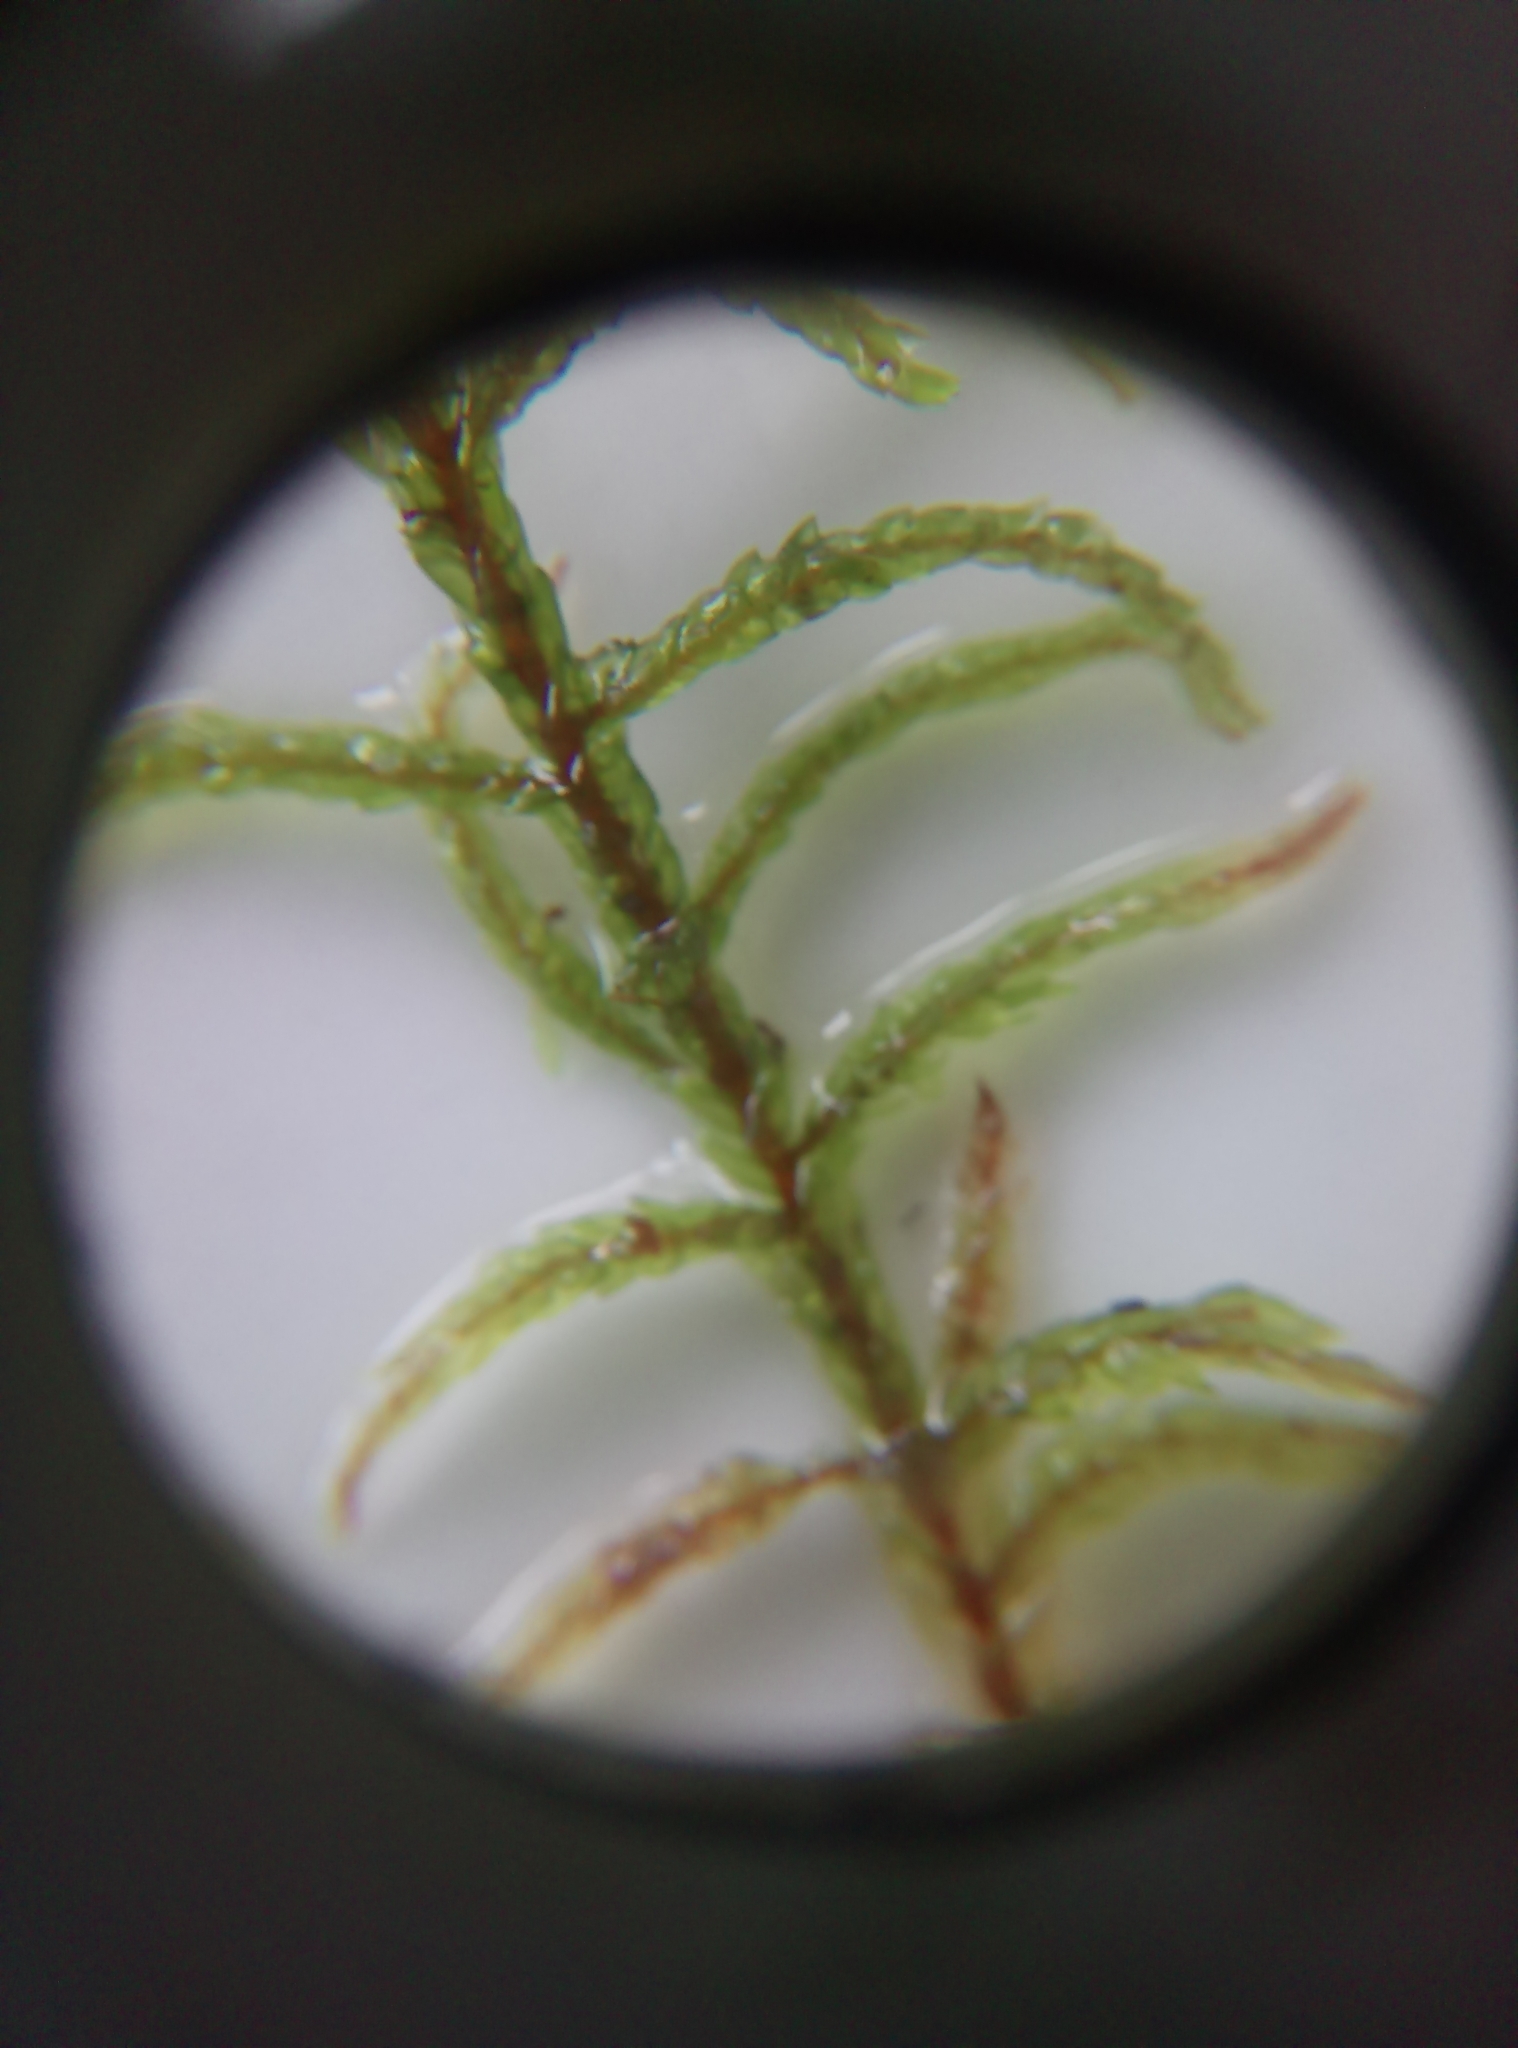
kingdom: Plantae
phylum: Bryophyta
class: Bryopsida
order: Hypnales
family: Hylocomiaceae
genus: Pleurozium
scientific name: Pleurozium schreberi
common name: Red-stemmed feather moss
